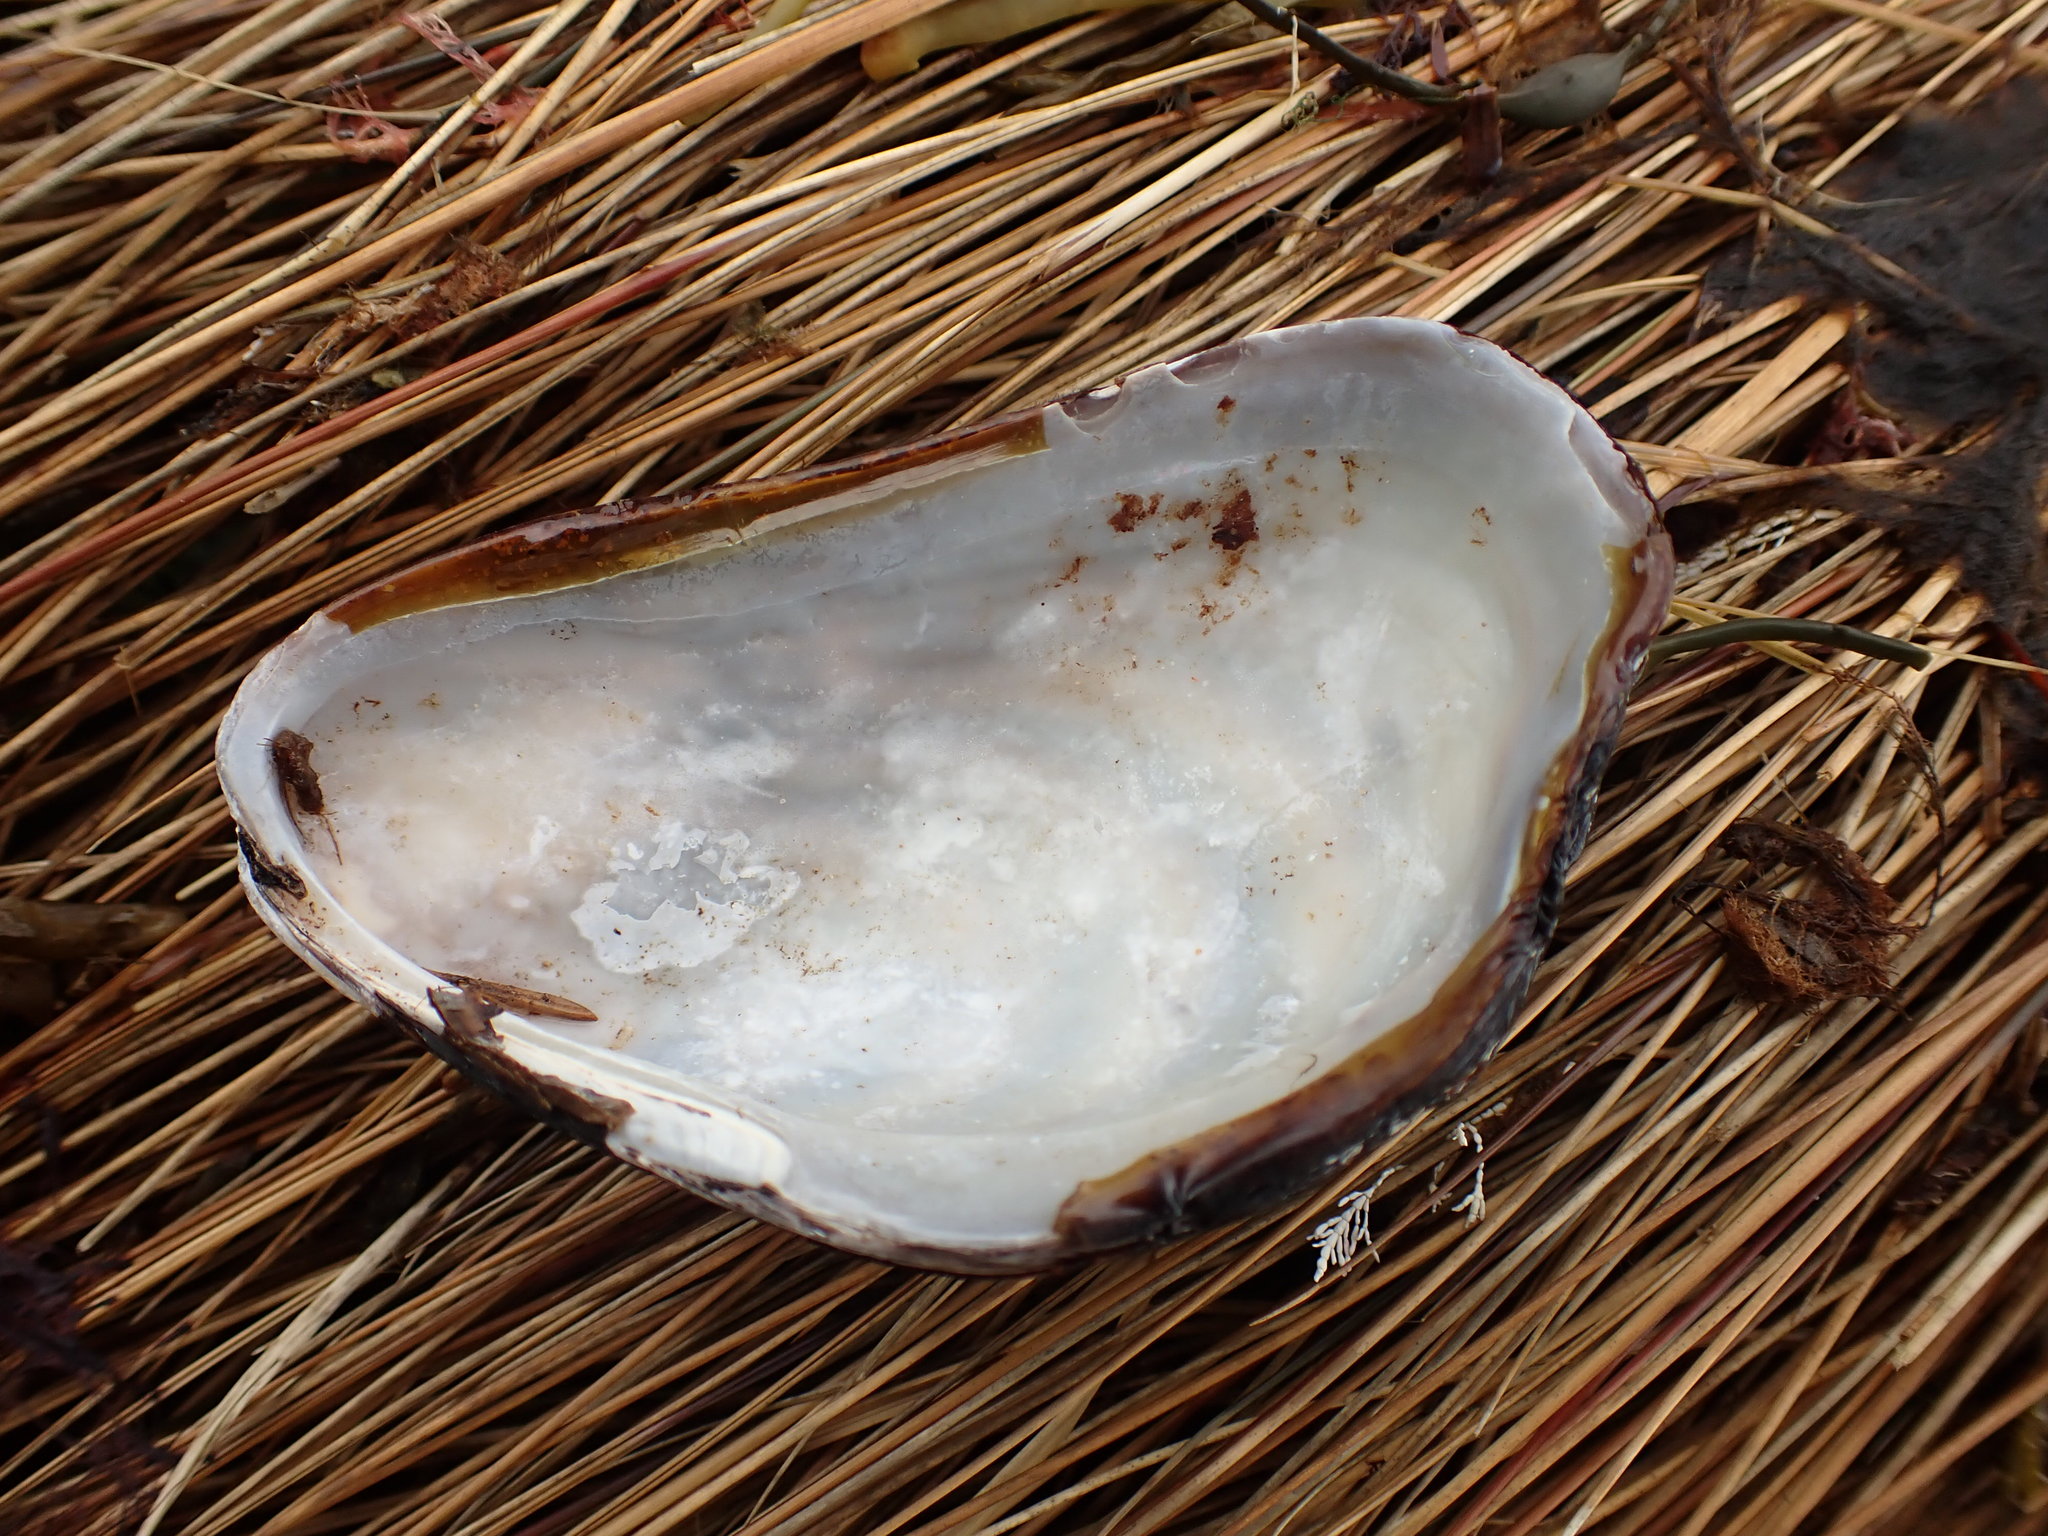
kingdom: Animalia
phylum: Mollusca
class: Bivalvia
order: Mytilida
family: Mytilidae
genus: Modiolus
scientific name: Modiolus modiolus
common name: Horse-mussel
